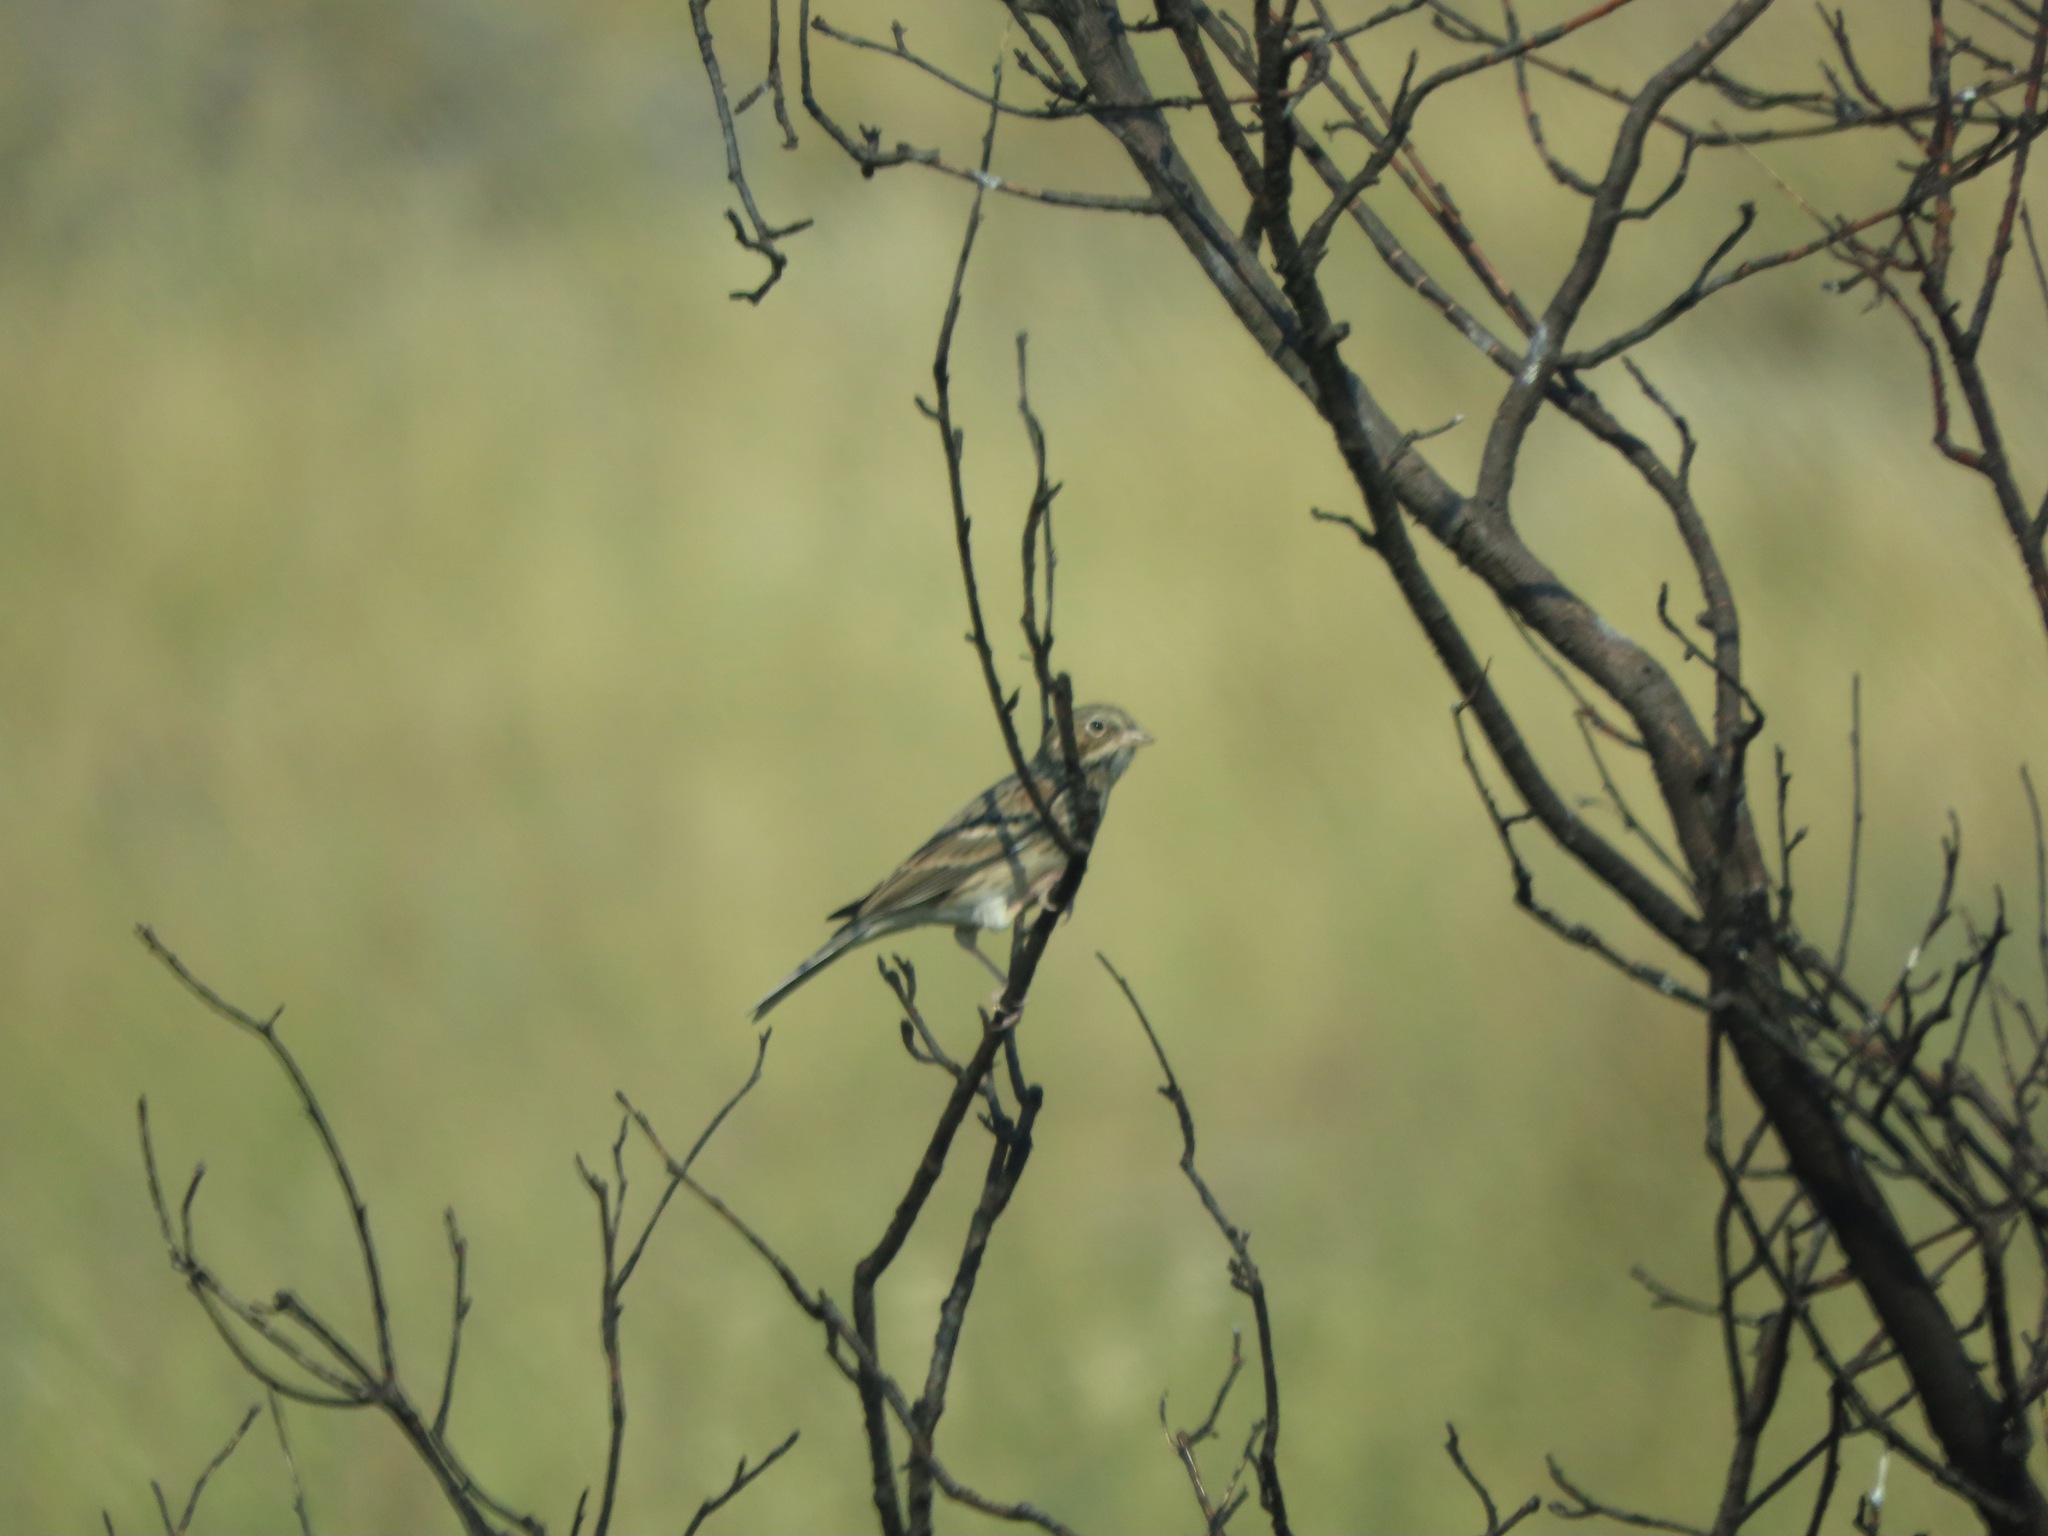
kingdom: Animalia
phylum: Chordata
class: Aves
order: Passeriformes
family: Passerellidae
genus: Pooecetes
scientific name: Pooecetes gramineus
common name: Vesper sparrow
